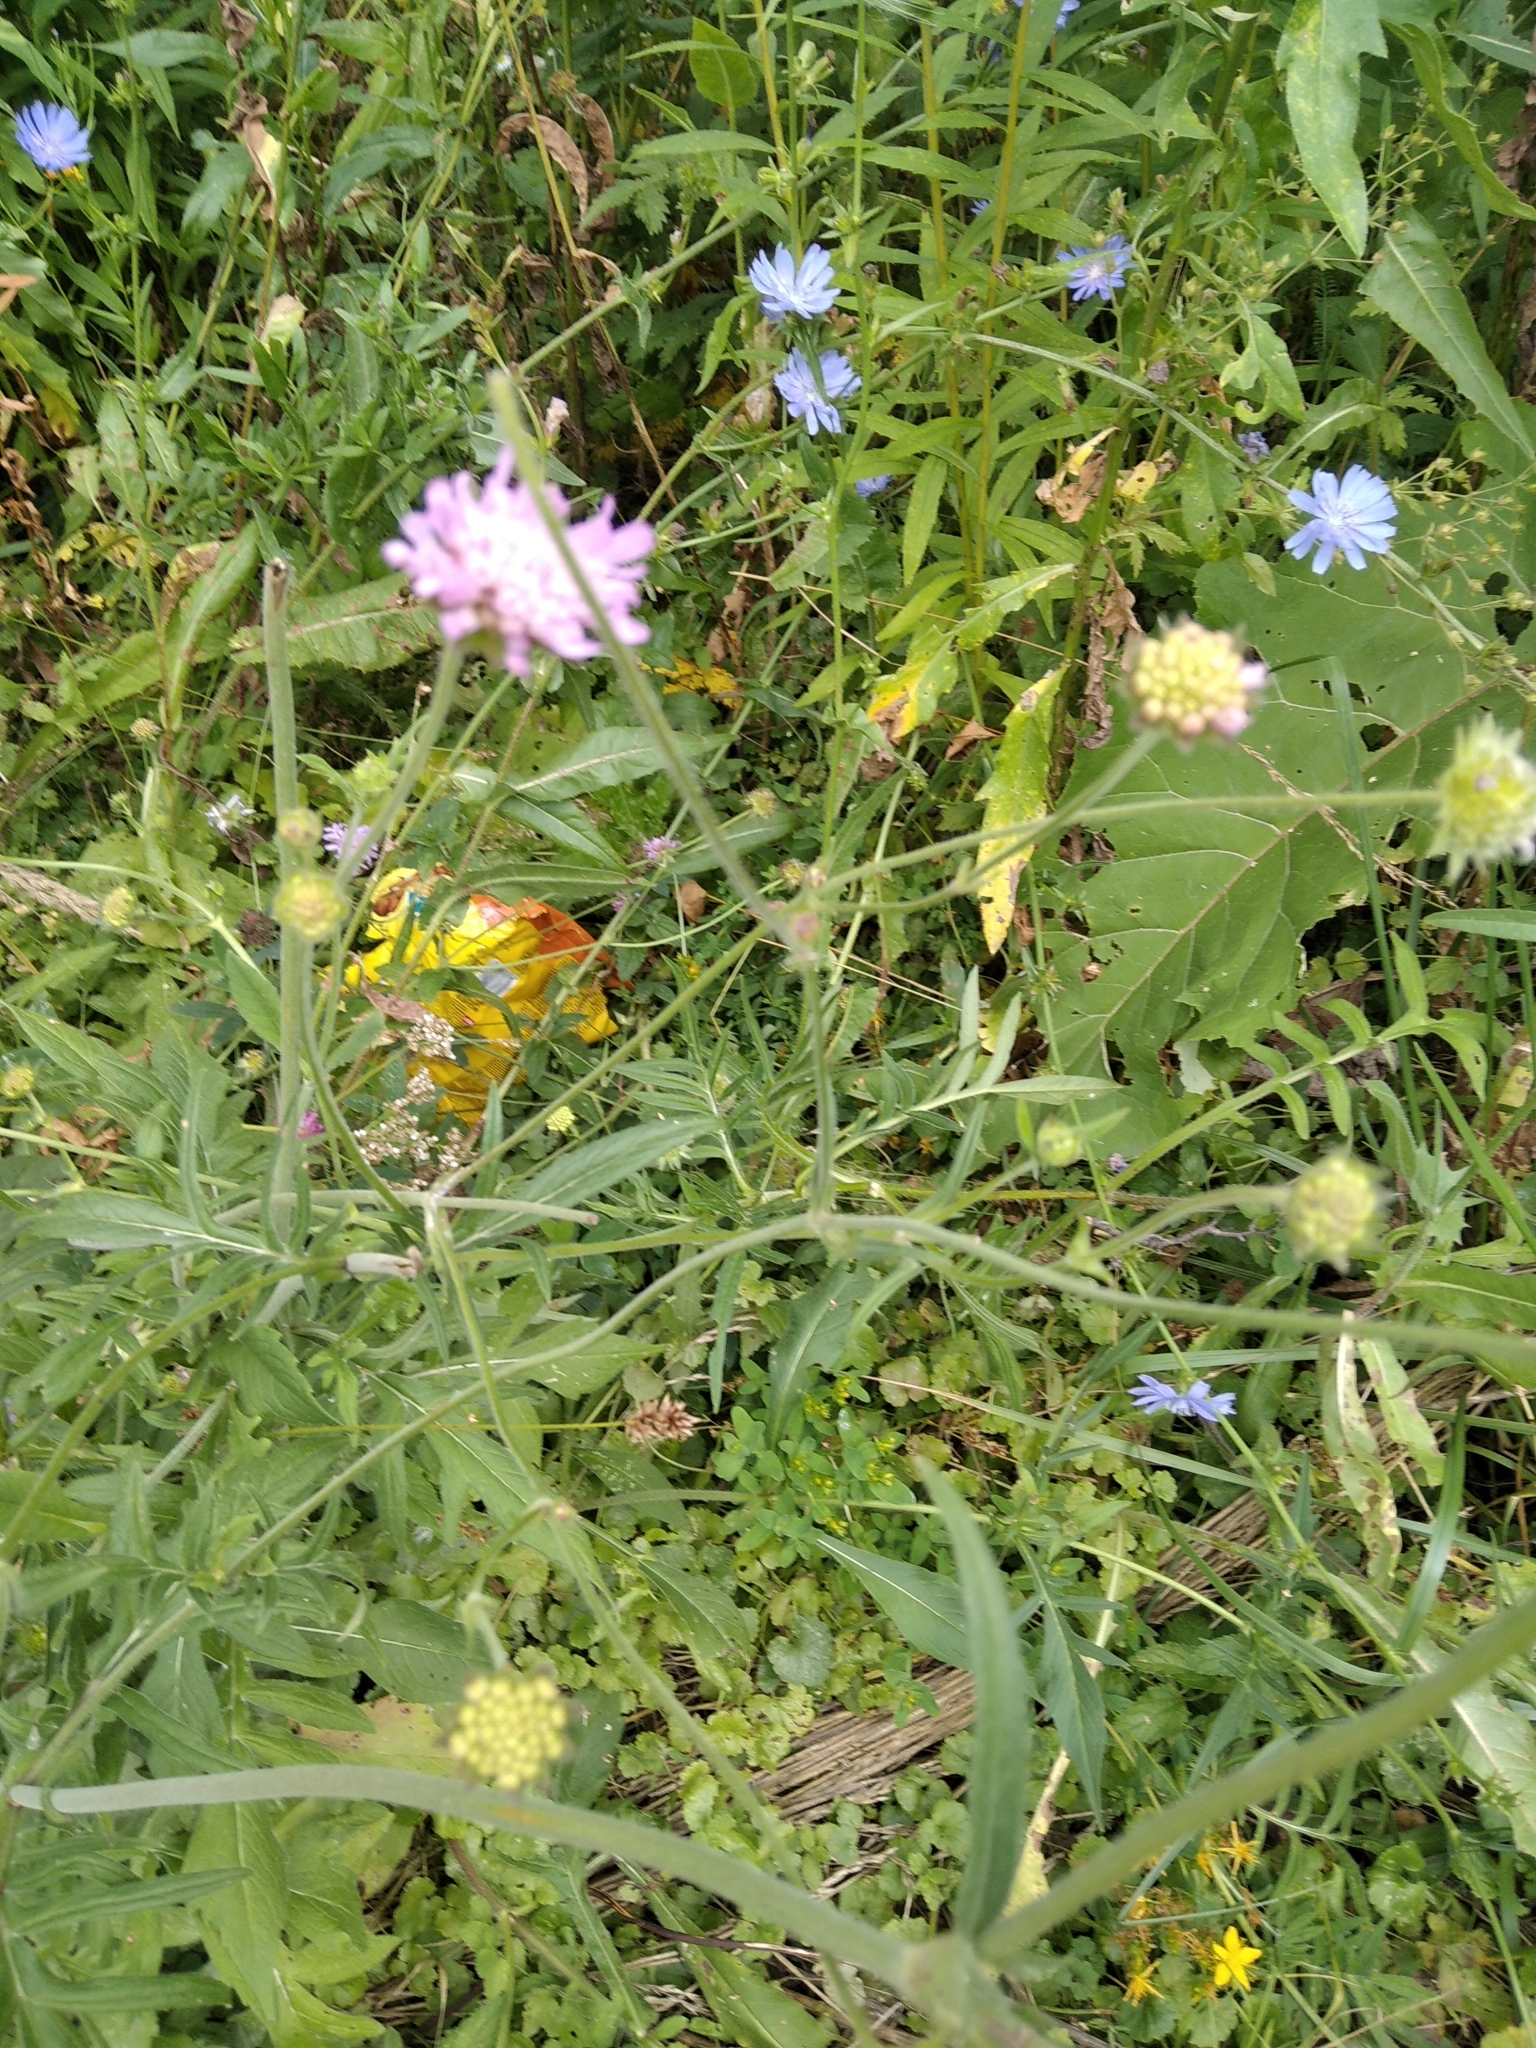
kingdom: Plantae
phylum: Tracheophyta
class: Magnoliopsida
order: Dipsacales
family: Caprifoliaceae
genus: Knautia
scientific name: Knautia arvensis
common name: Field scabiosa
